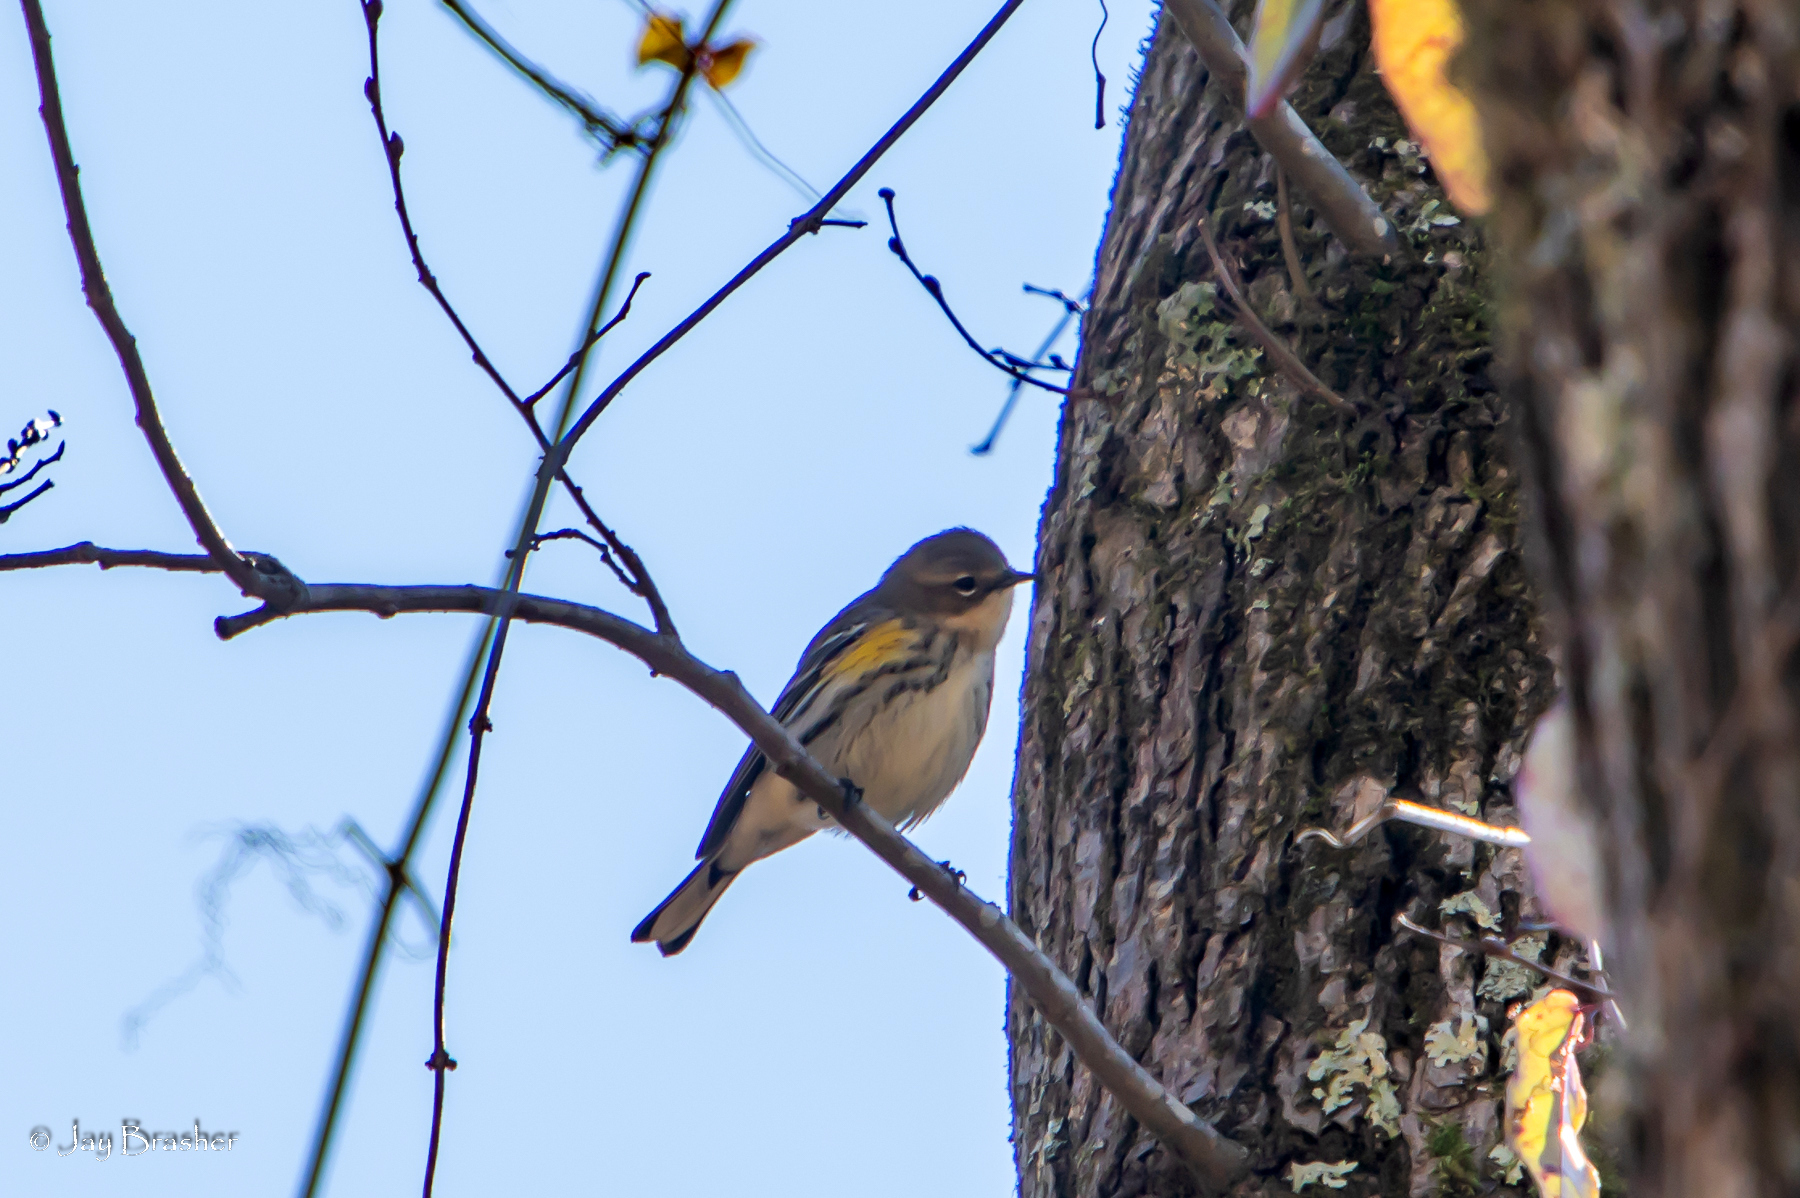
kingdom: Animalia
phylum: Chordata
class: Aves
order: Passeriformes
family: Parulidae
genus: Setophaga
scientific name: Setophaga coronata
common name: Myrtle warbler
